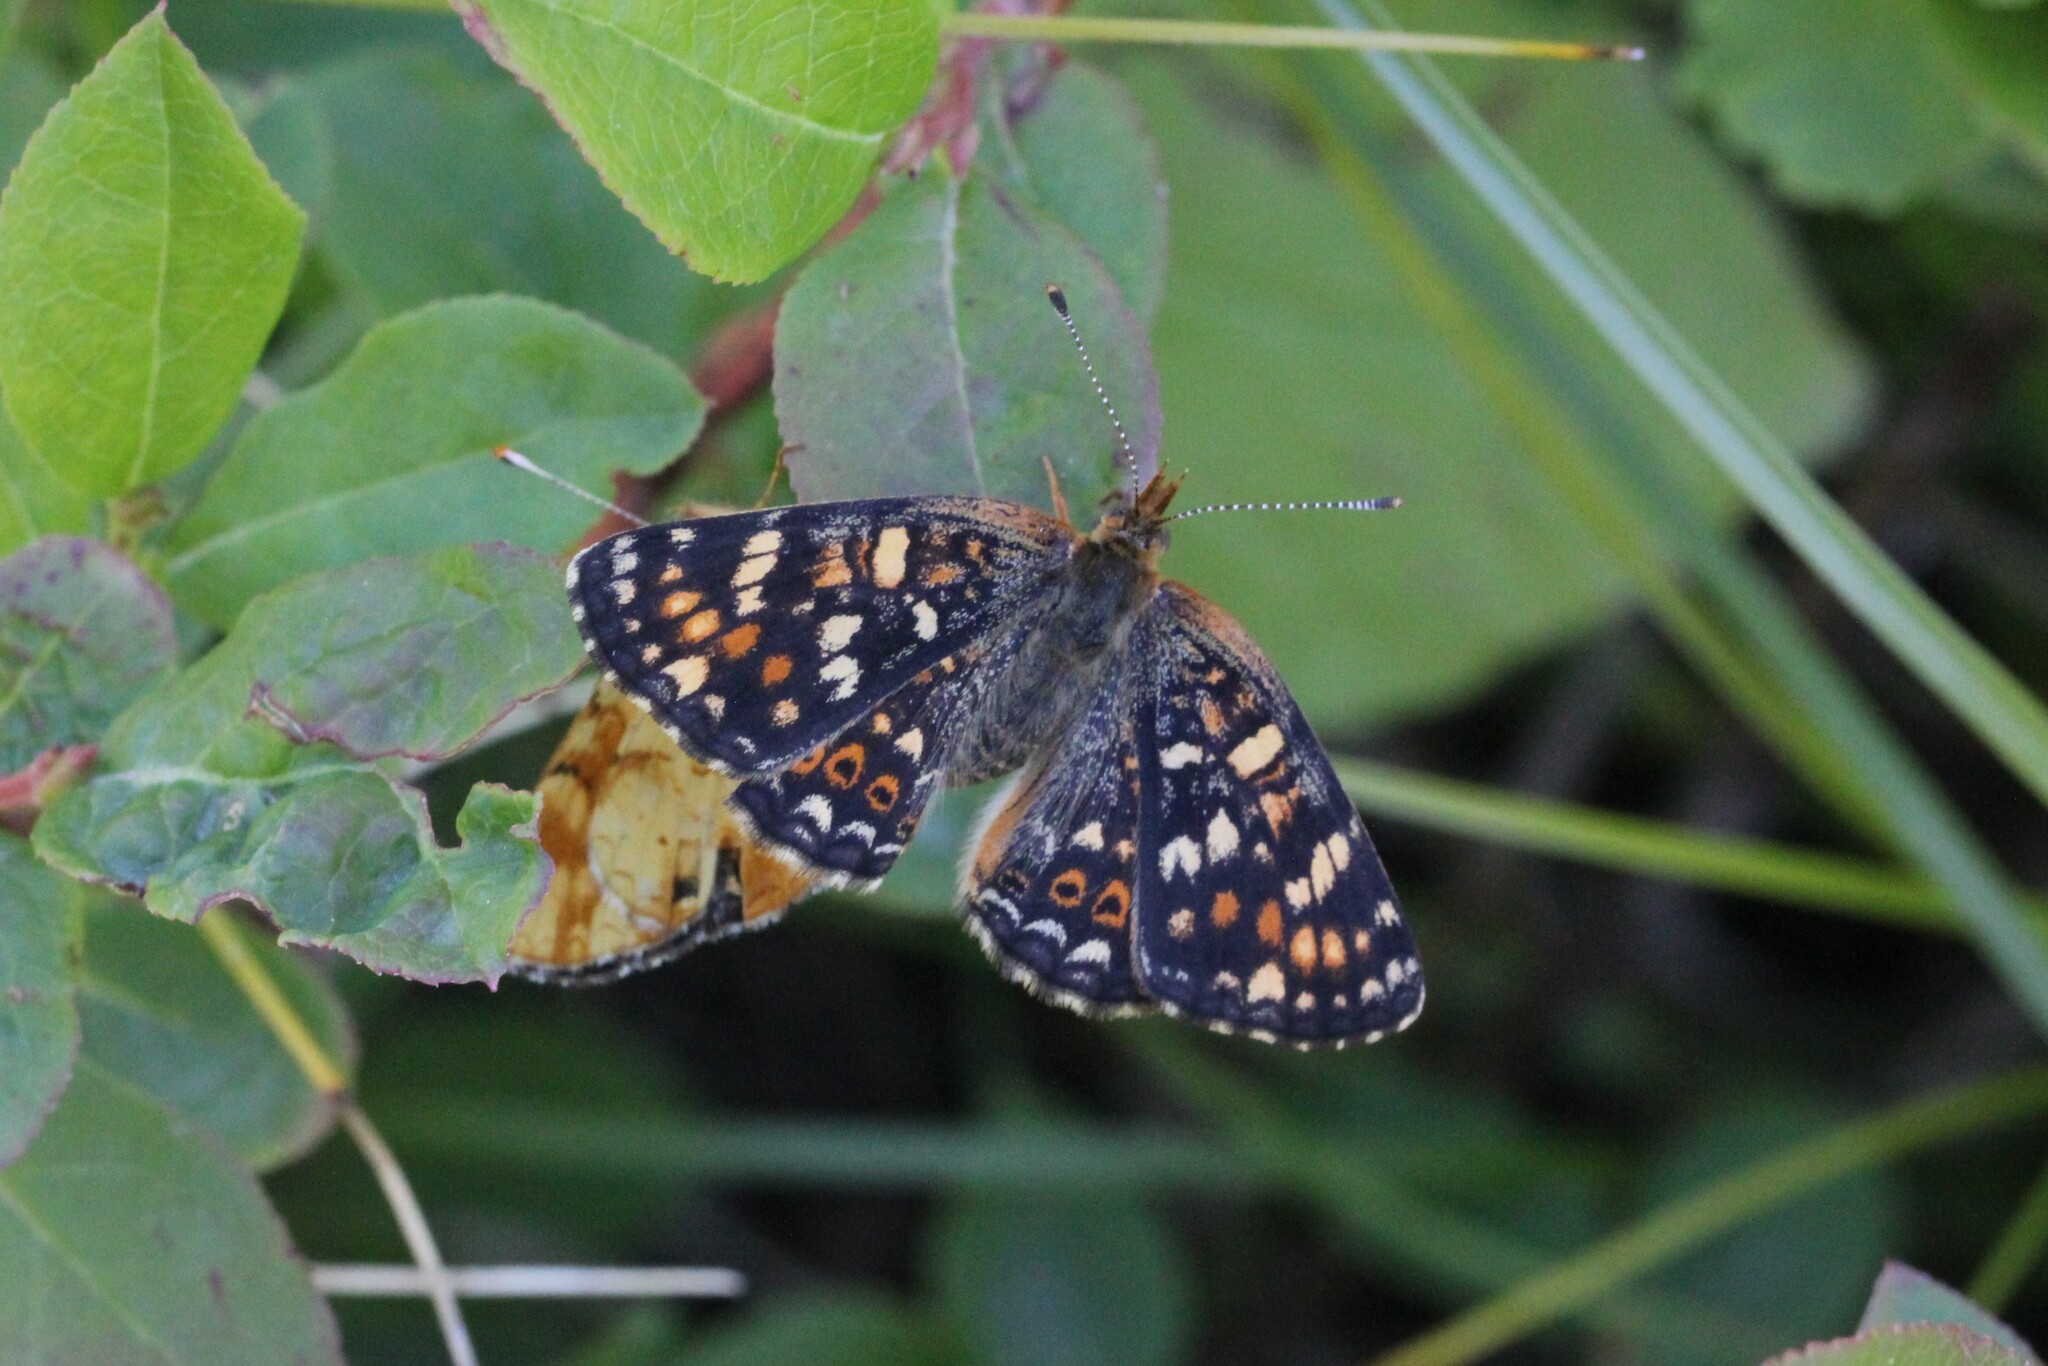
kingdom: Animalia
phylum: Arthropoda
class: Insecta
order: Lepidoptera
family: Nymphalidae
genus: Phyciodes
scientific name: Phyciodes tharos
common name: Pearl crescent
